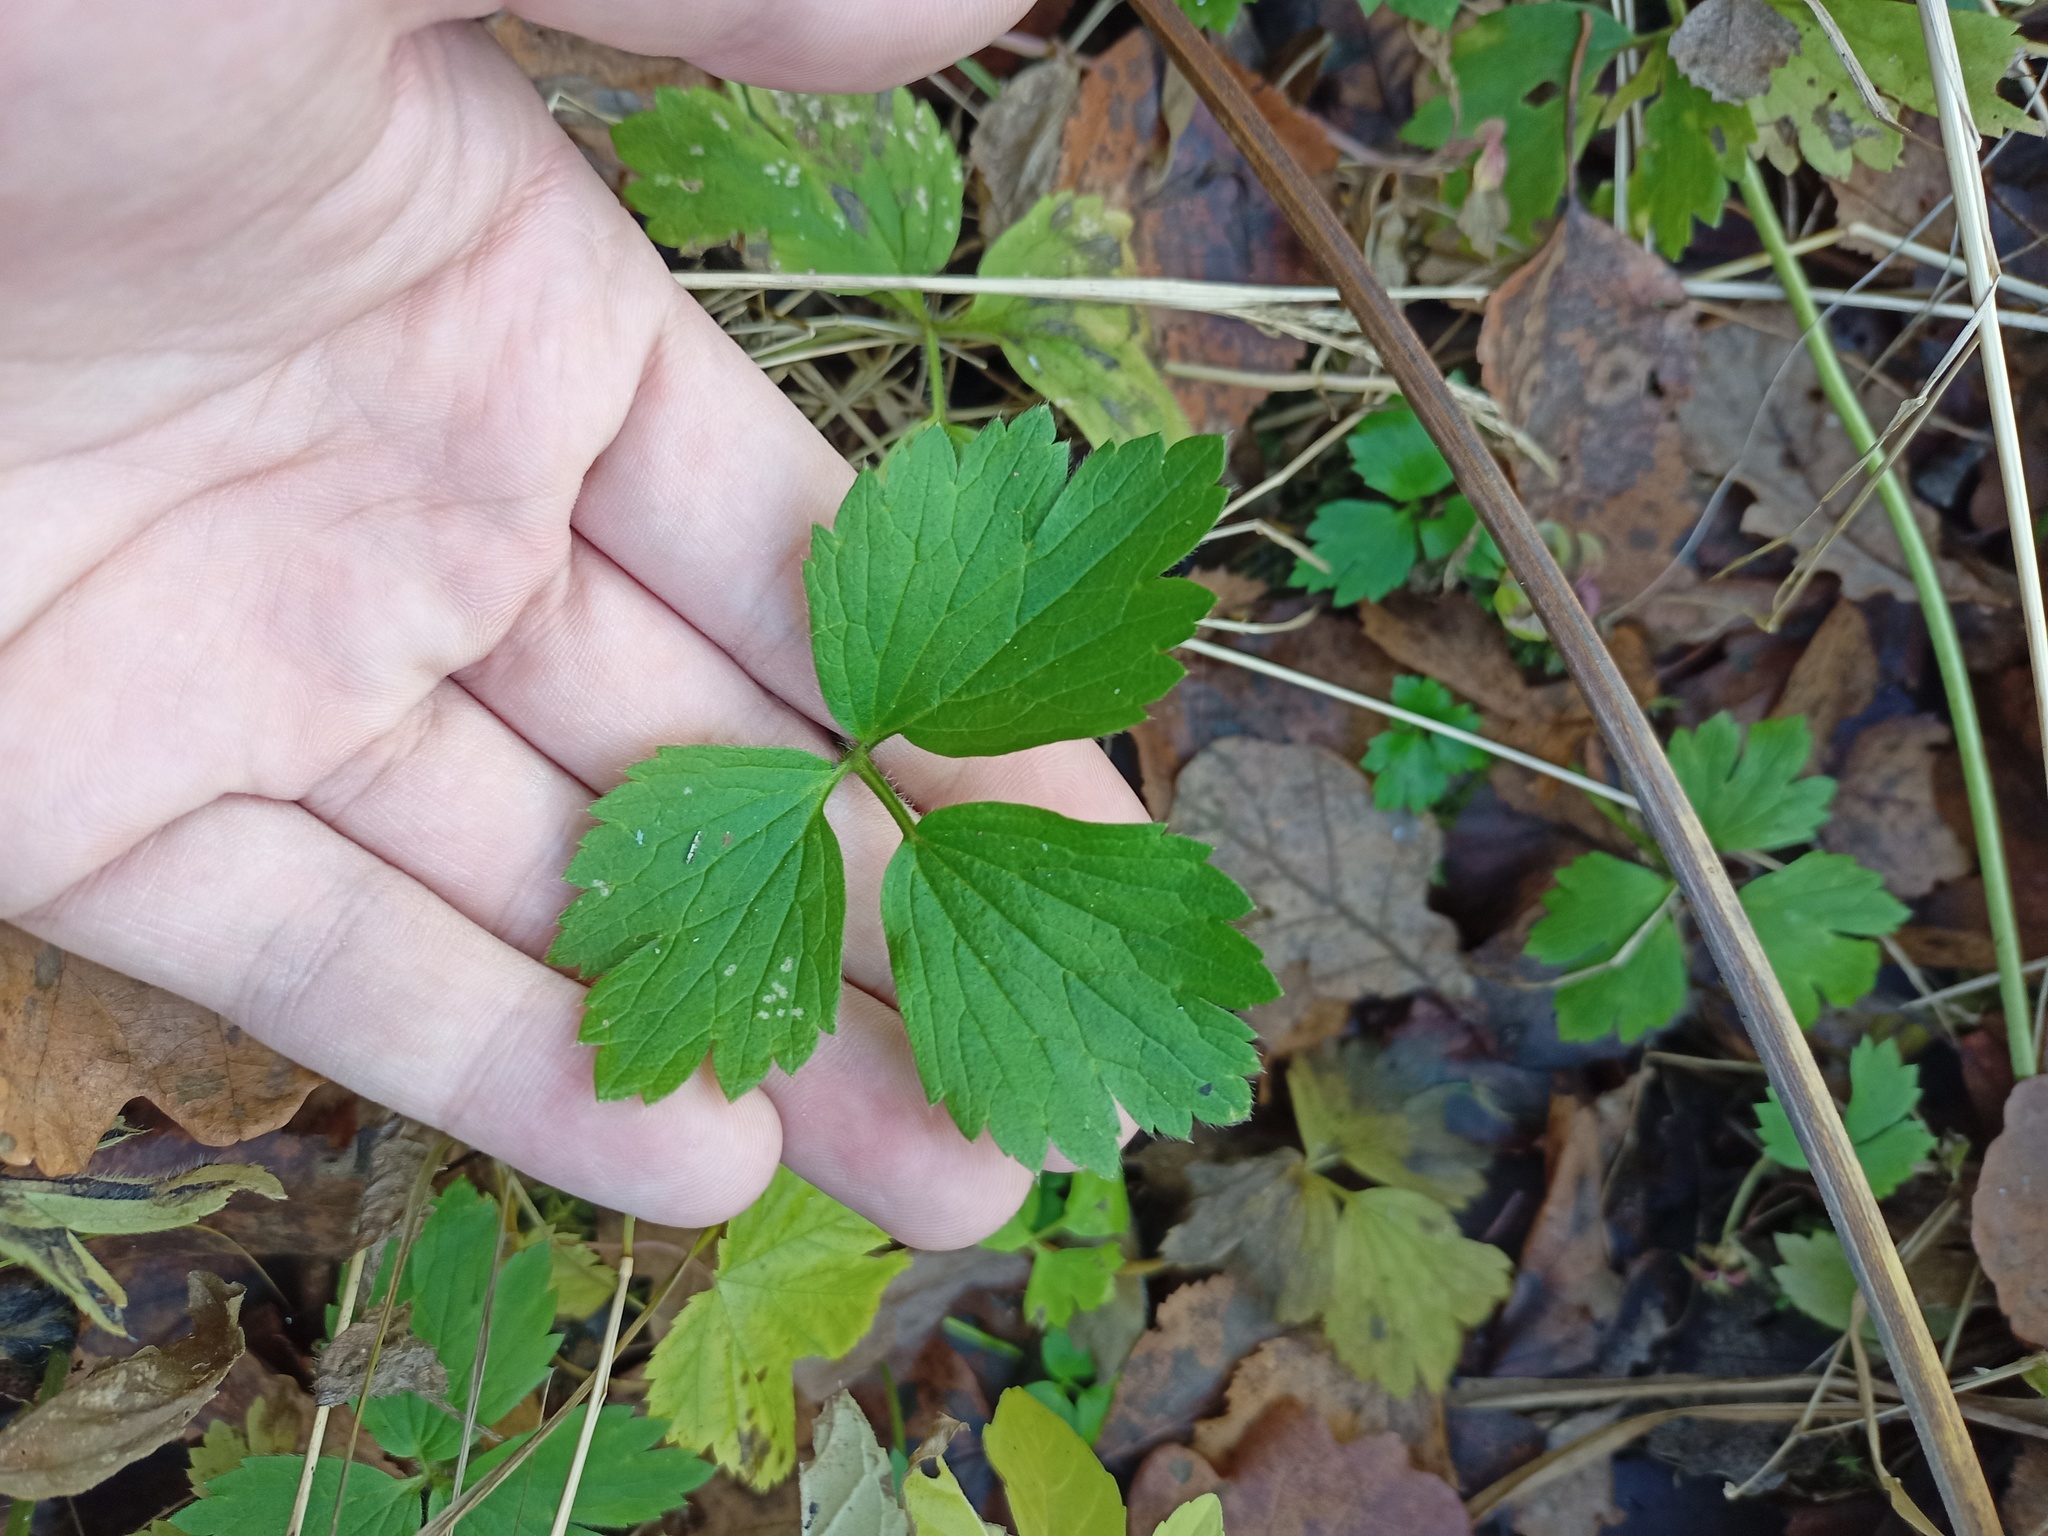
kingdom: Plantae
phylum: Tracheophyta
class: Magnoliopsida
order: Ranunculales
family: Ranunculaceae
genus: Ranunculus
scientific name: Ranunculus repens
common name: Creeping buttercup
